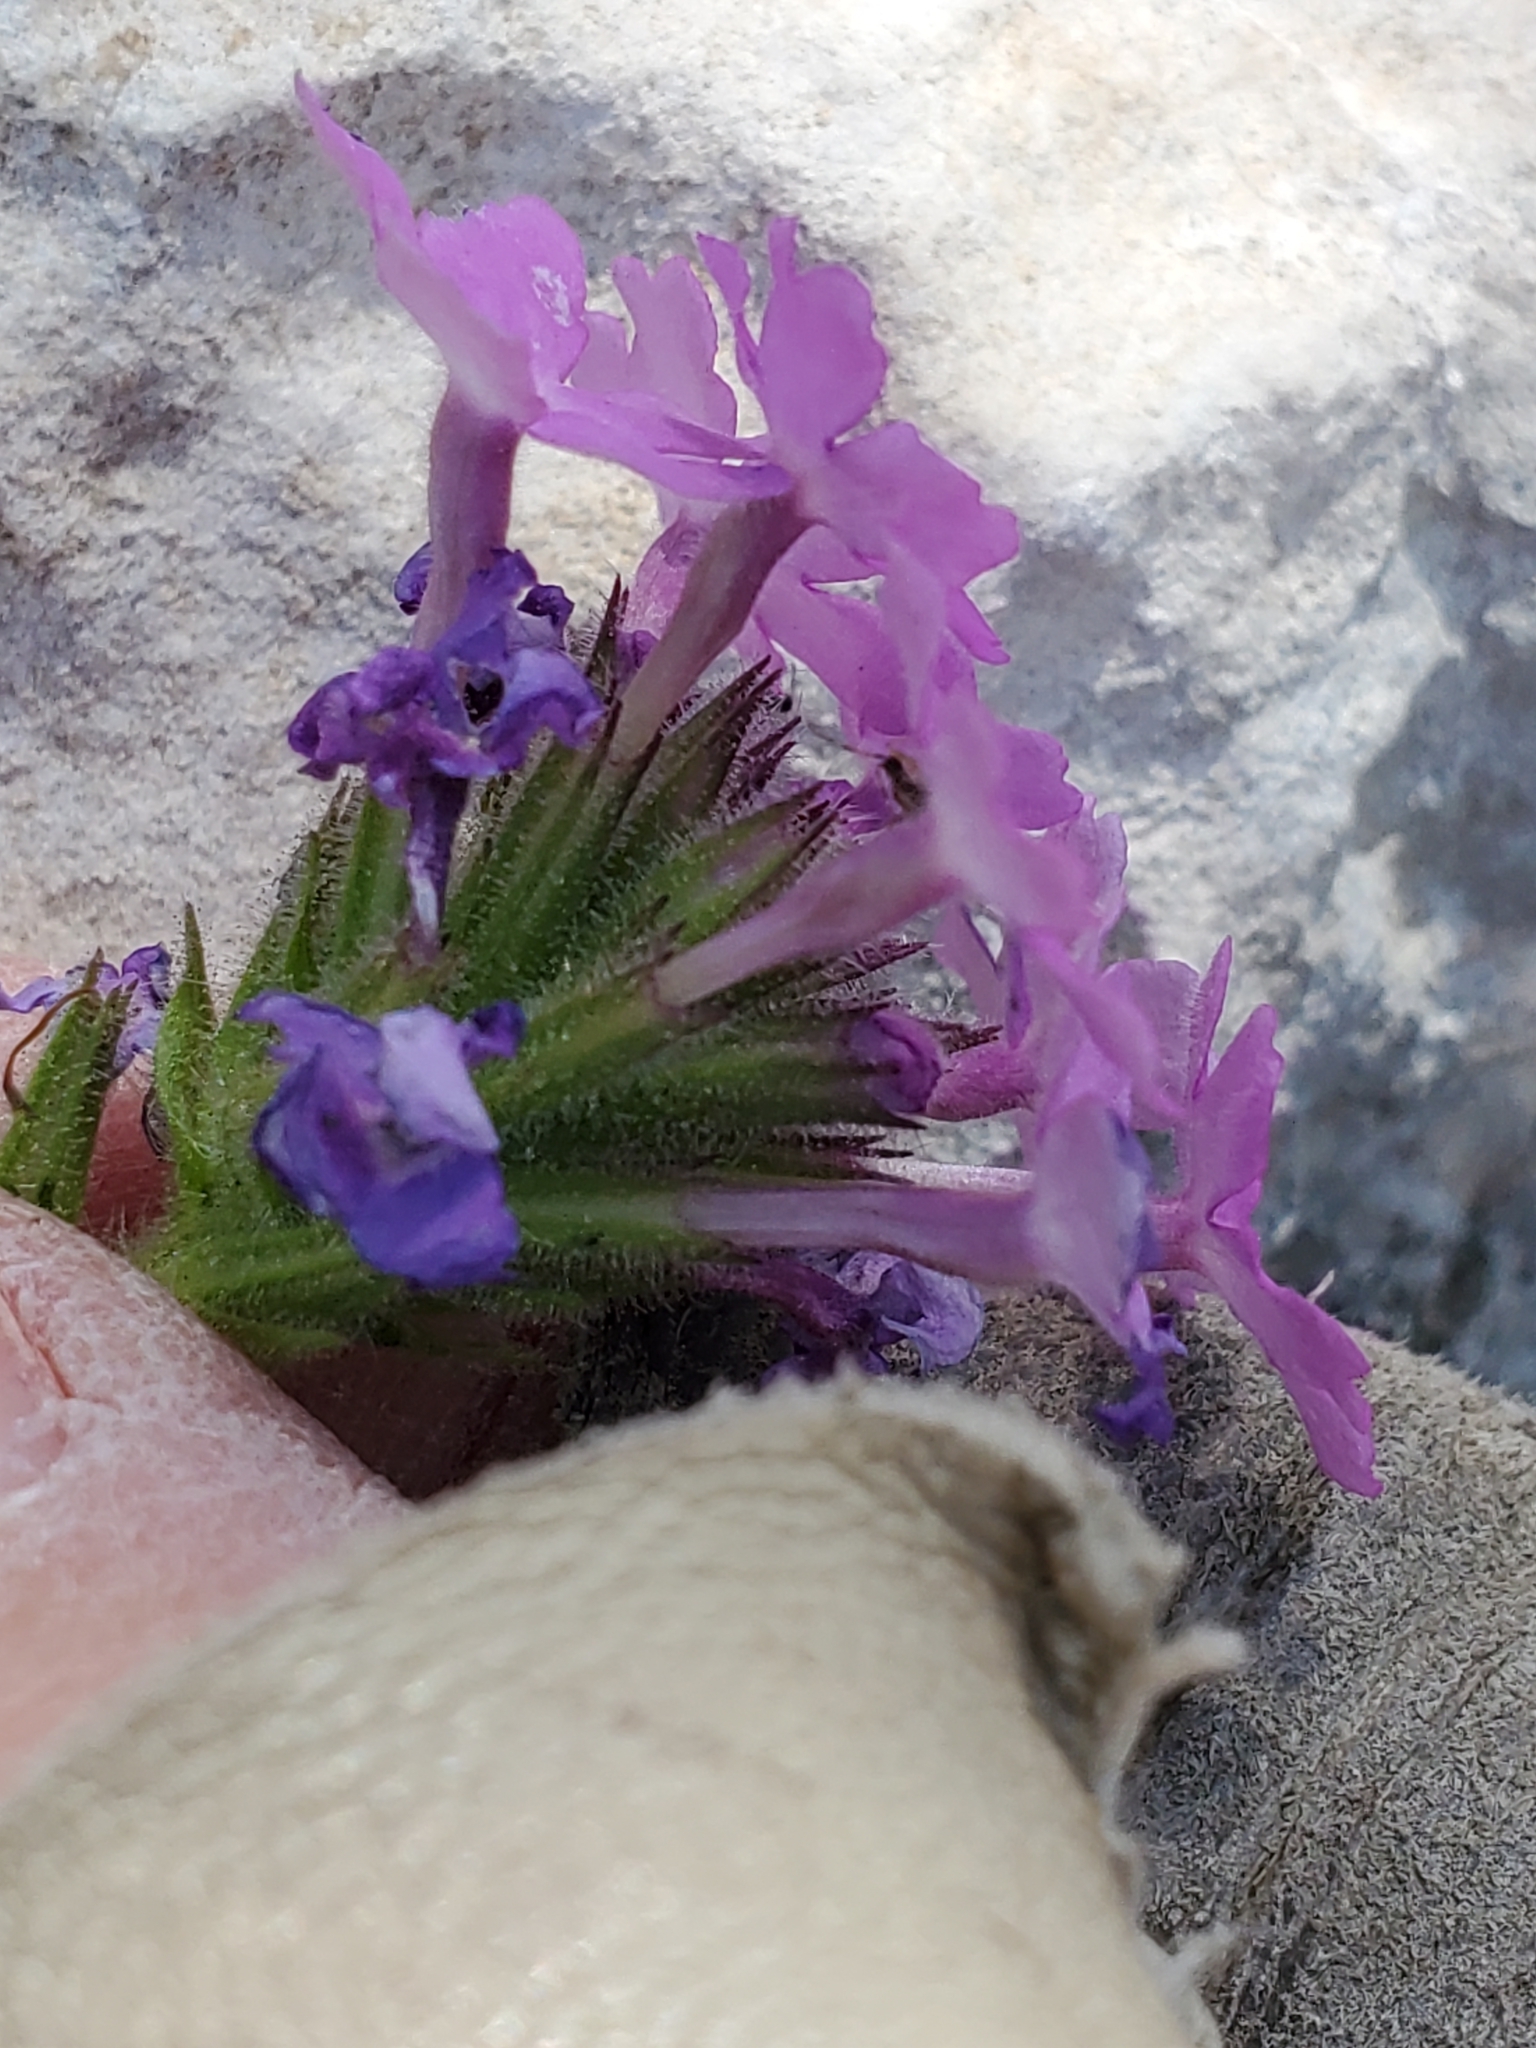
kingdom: Plantae
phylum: Tracheophyta
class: Magnoliopsida
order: Lamiales
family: Verbenaceae
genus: Verbena
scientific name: Verbena tumidula
